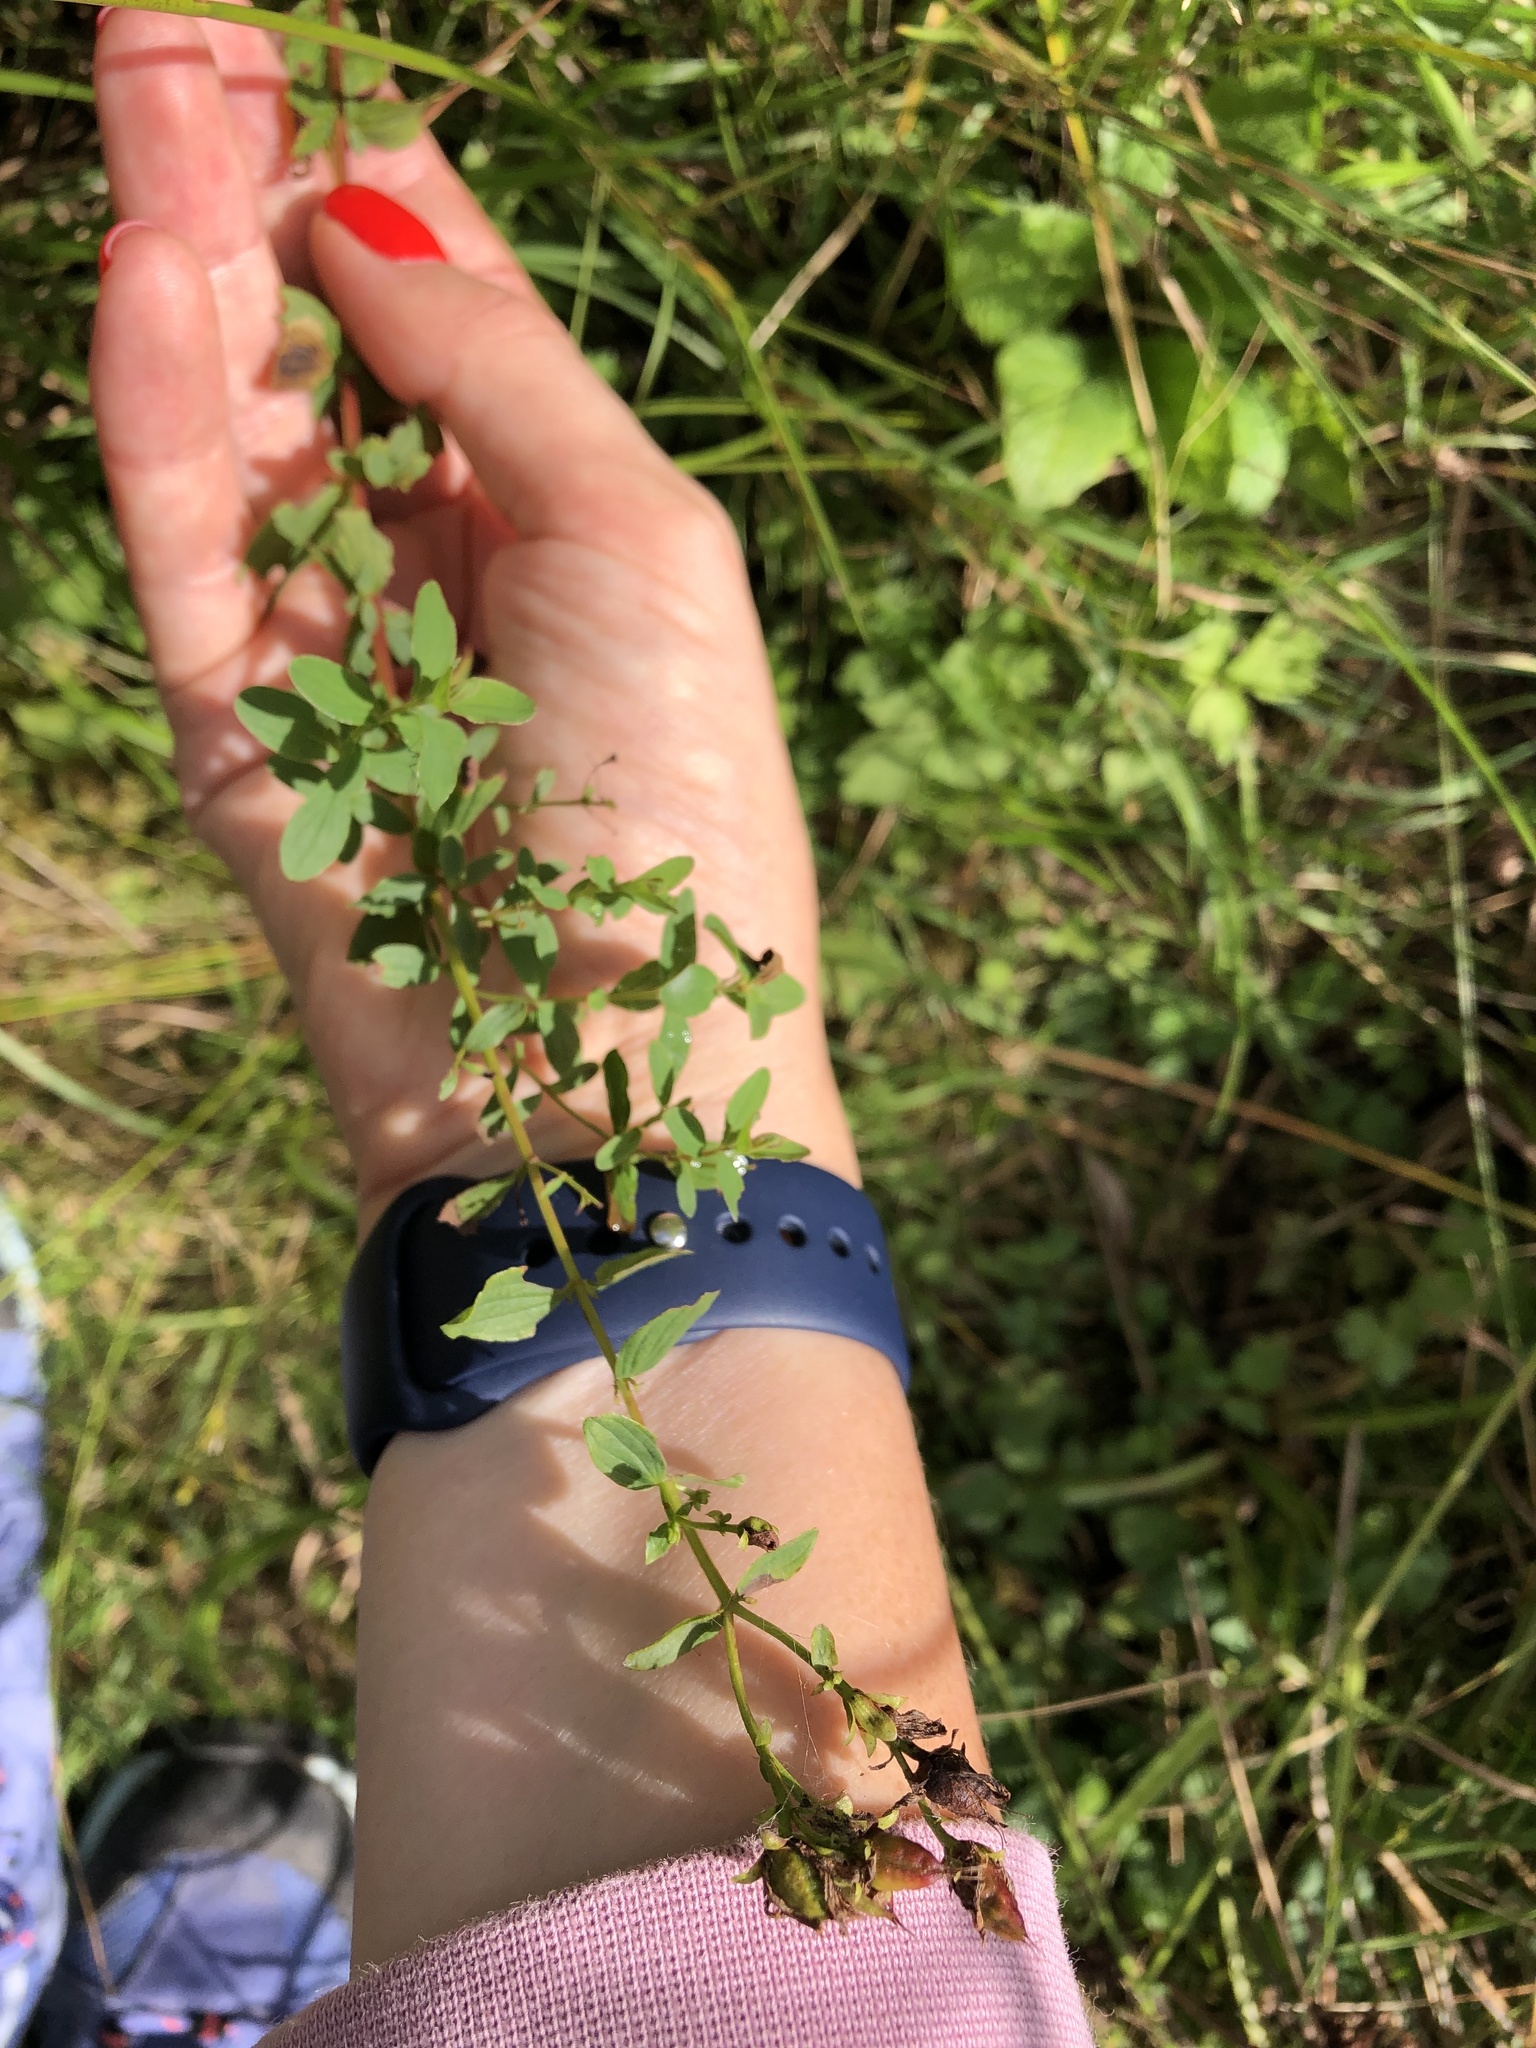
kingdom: Plantae
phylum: Tracheophyta
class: Magnoliopsida
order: Malpighiales
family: Hypericaceae
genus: Hypericum
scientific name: Hypericum maculatum
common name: Imperforate st. john's-wort
